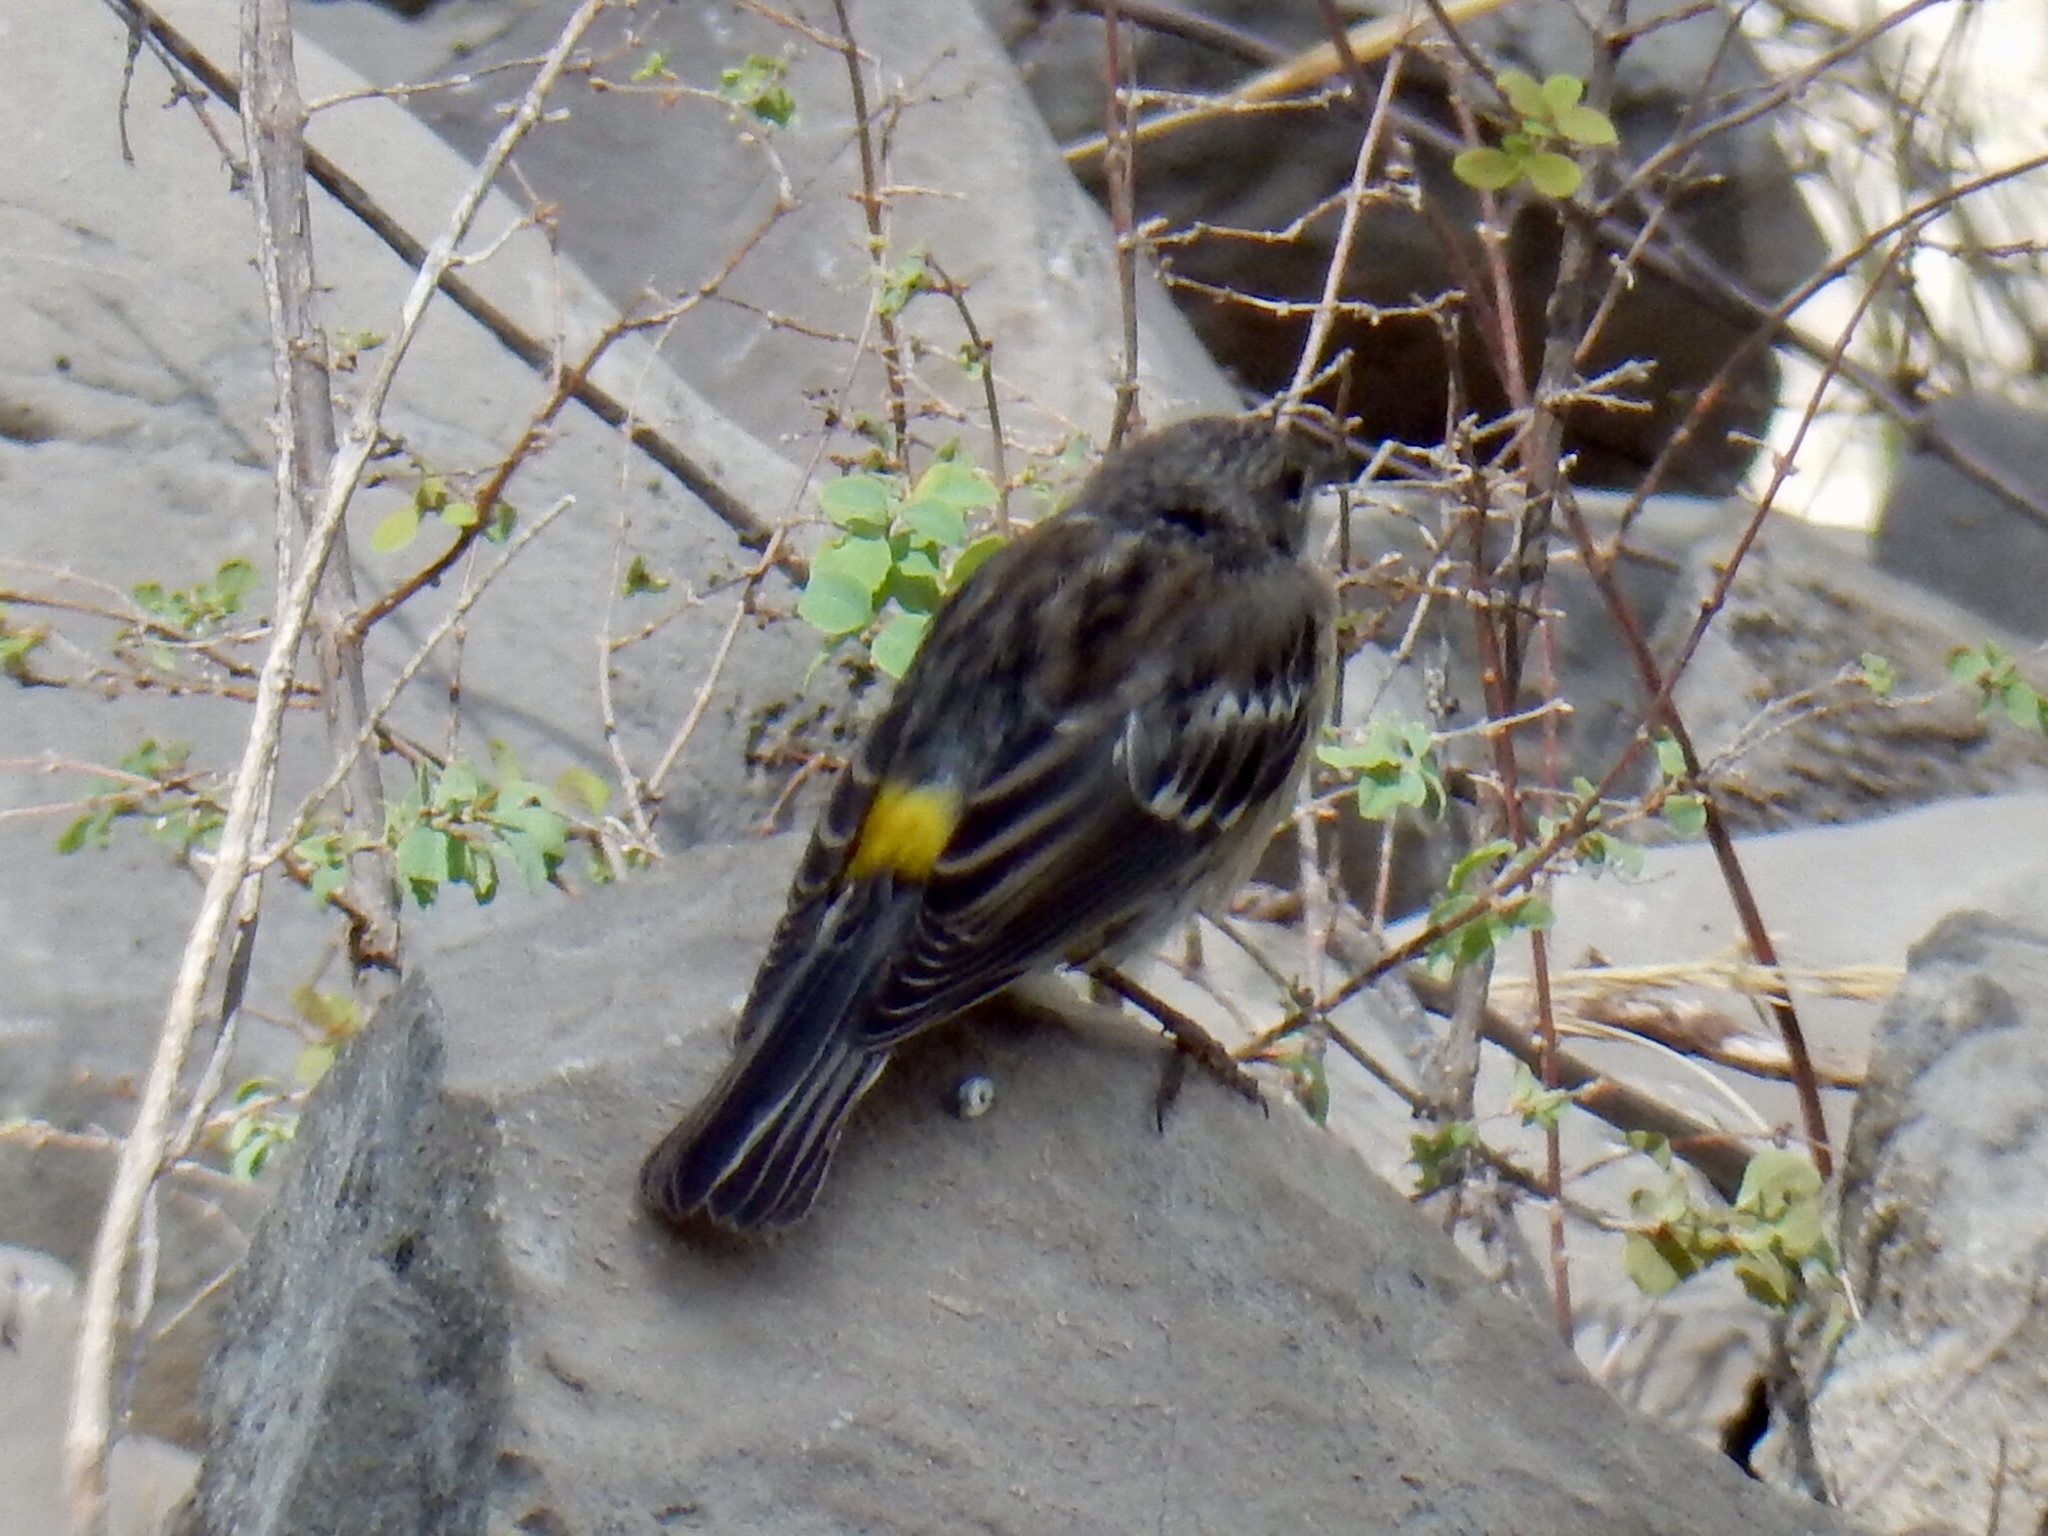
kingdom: Animalia
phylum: Chordata
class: Aves
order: Passeriformes
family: Parulidae
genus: Setophaga
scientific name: Setophaga coronata
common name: Myrtle warbler
